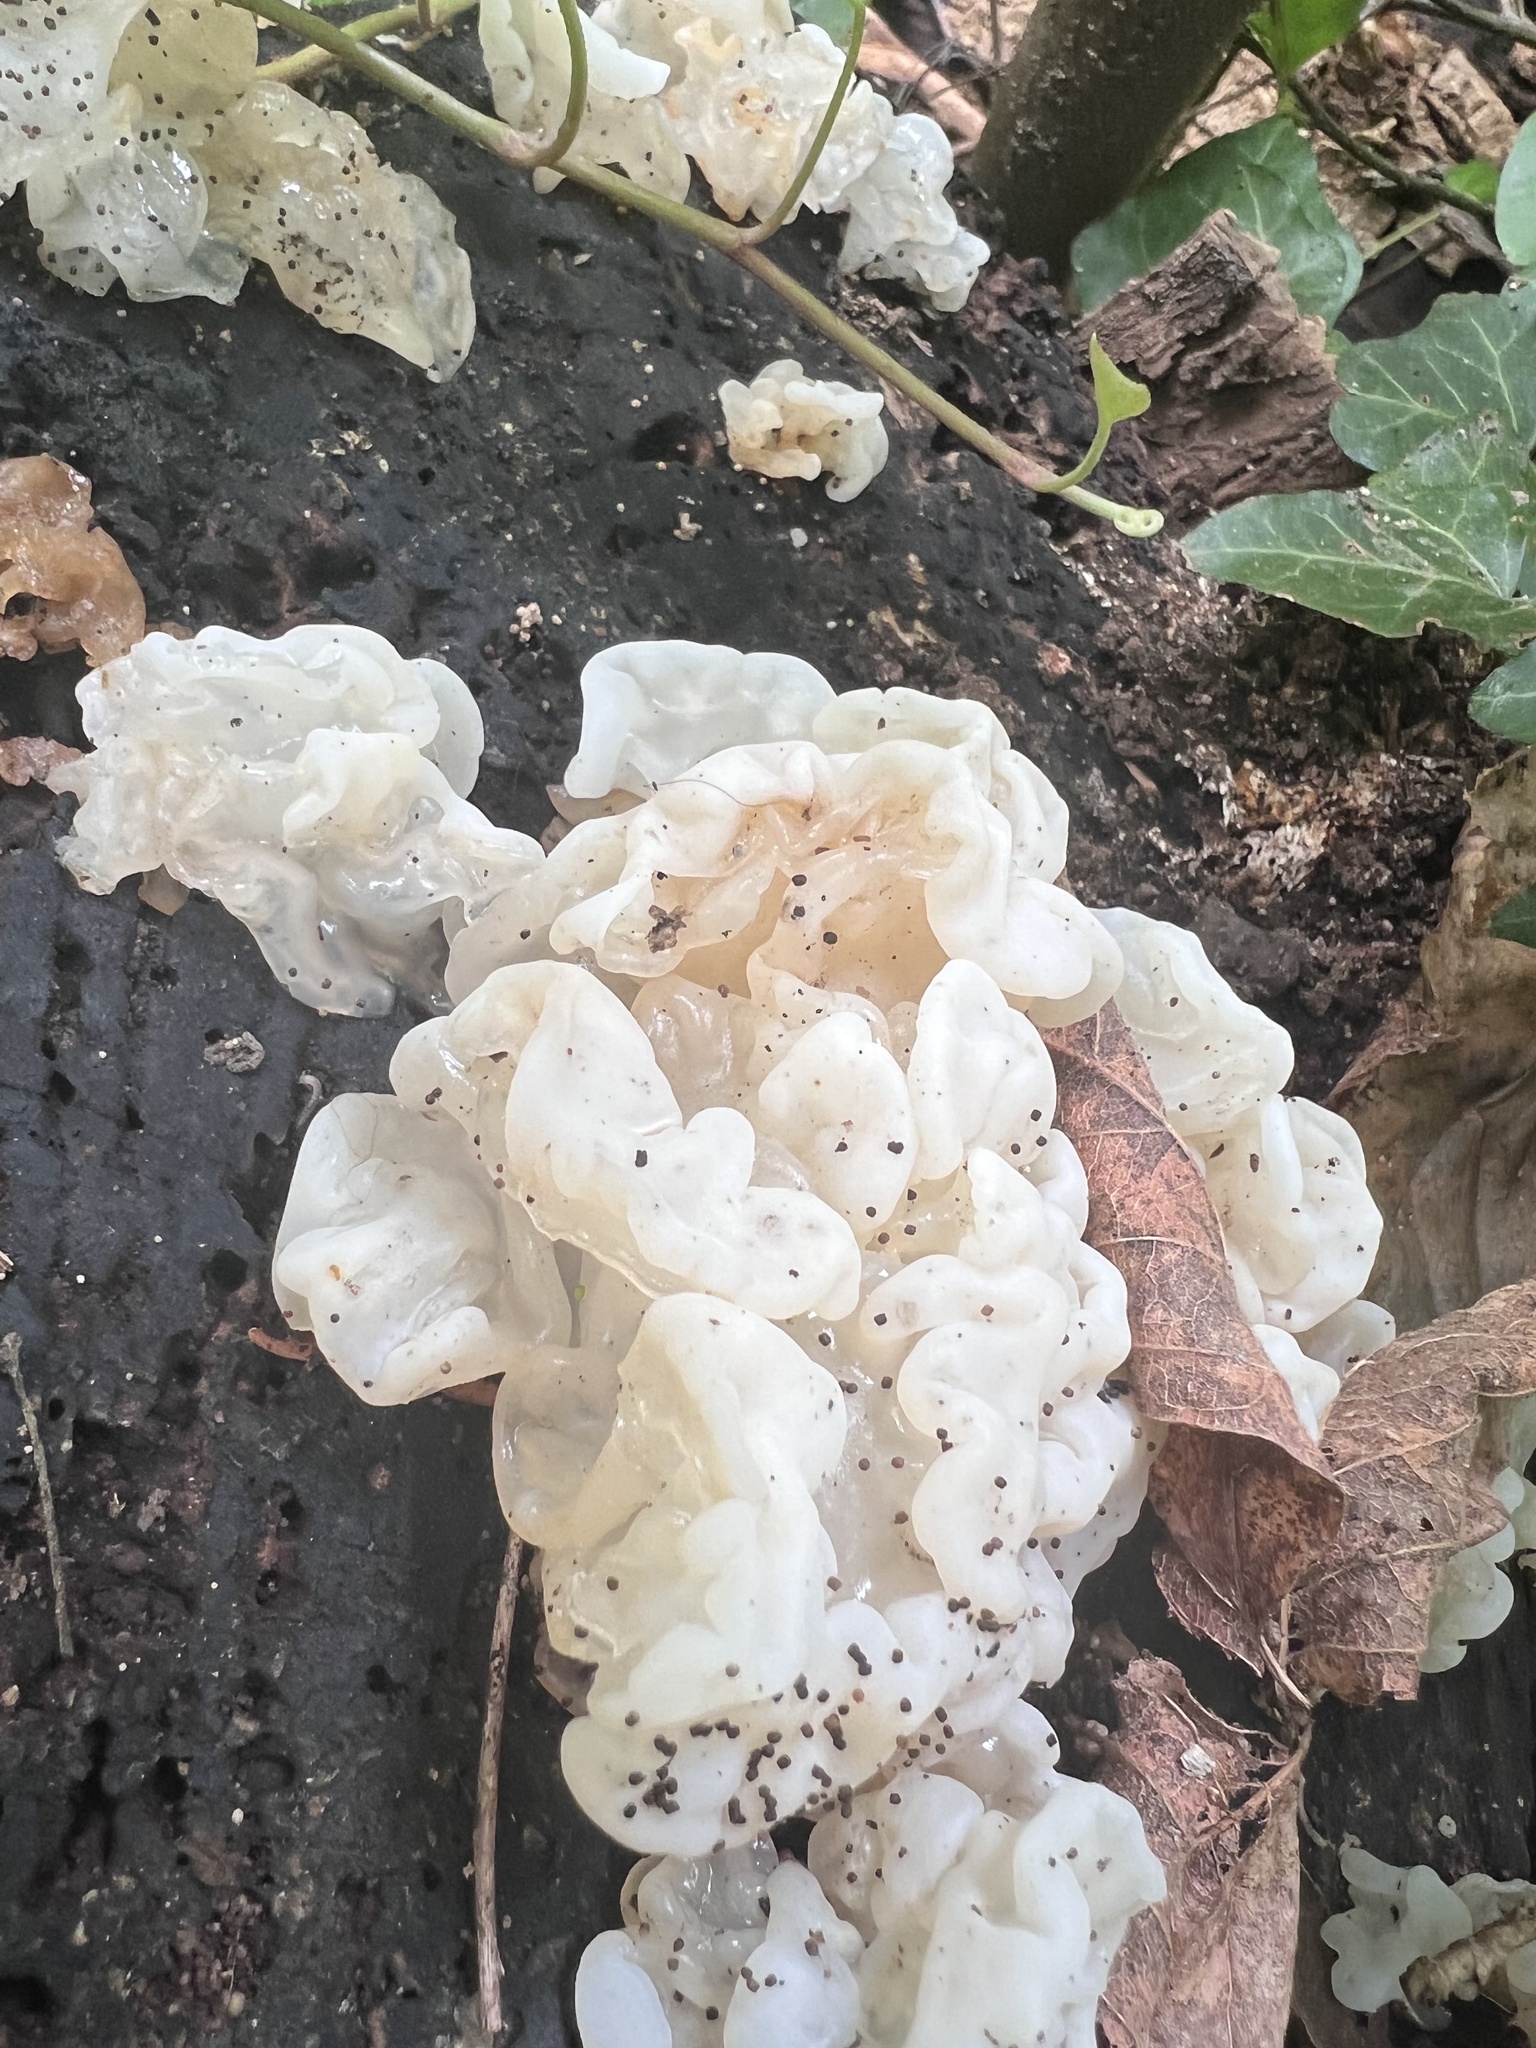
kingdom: Fungi
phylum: Basidiomycota
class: Agaricomycetes
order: Auriculariales
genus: Ductifera
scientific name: Ductifera pululahuana
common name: White jelly fungus
